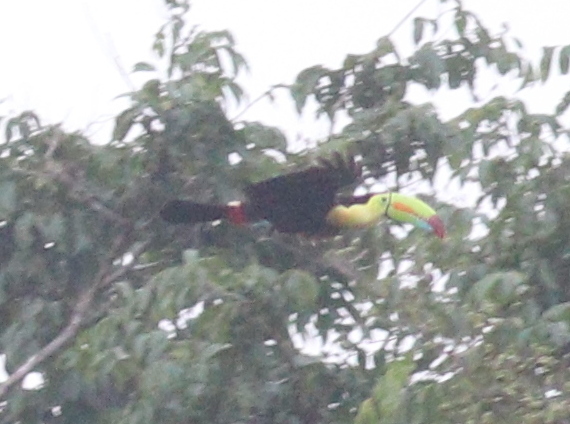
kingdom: Animalia
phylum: Chordata
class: Aves
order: Piciformes
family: Ramphastidae
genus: Ramphastos
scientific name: Ramphastos sulfuratus
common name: Keel-billed toucan
